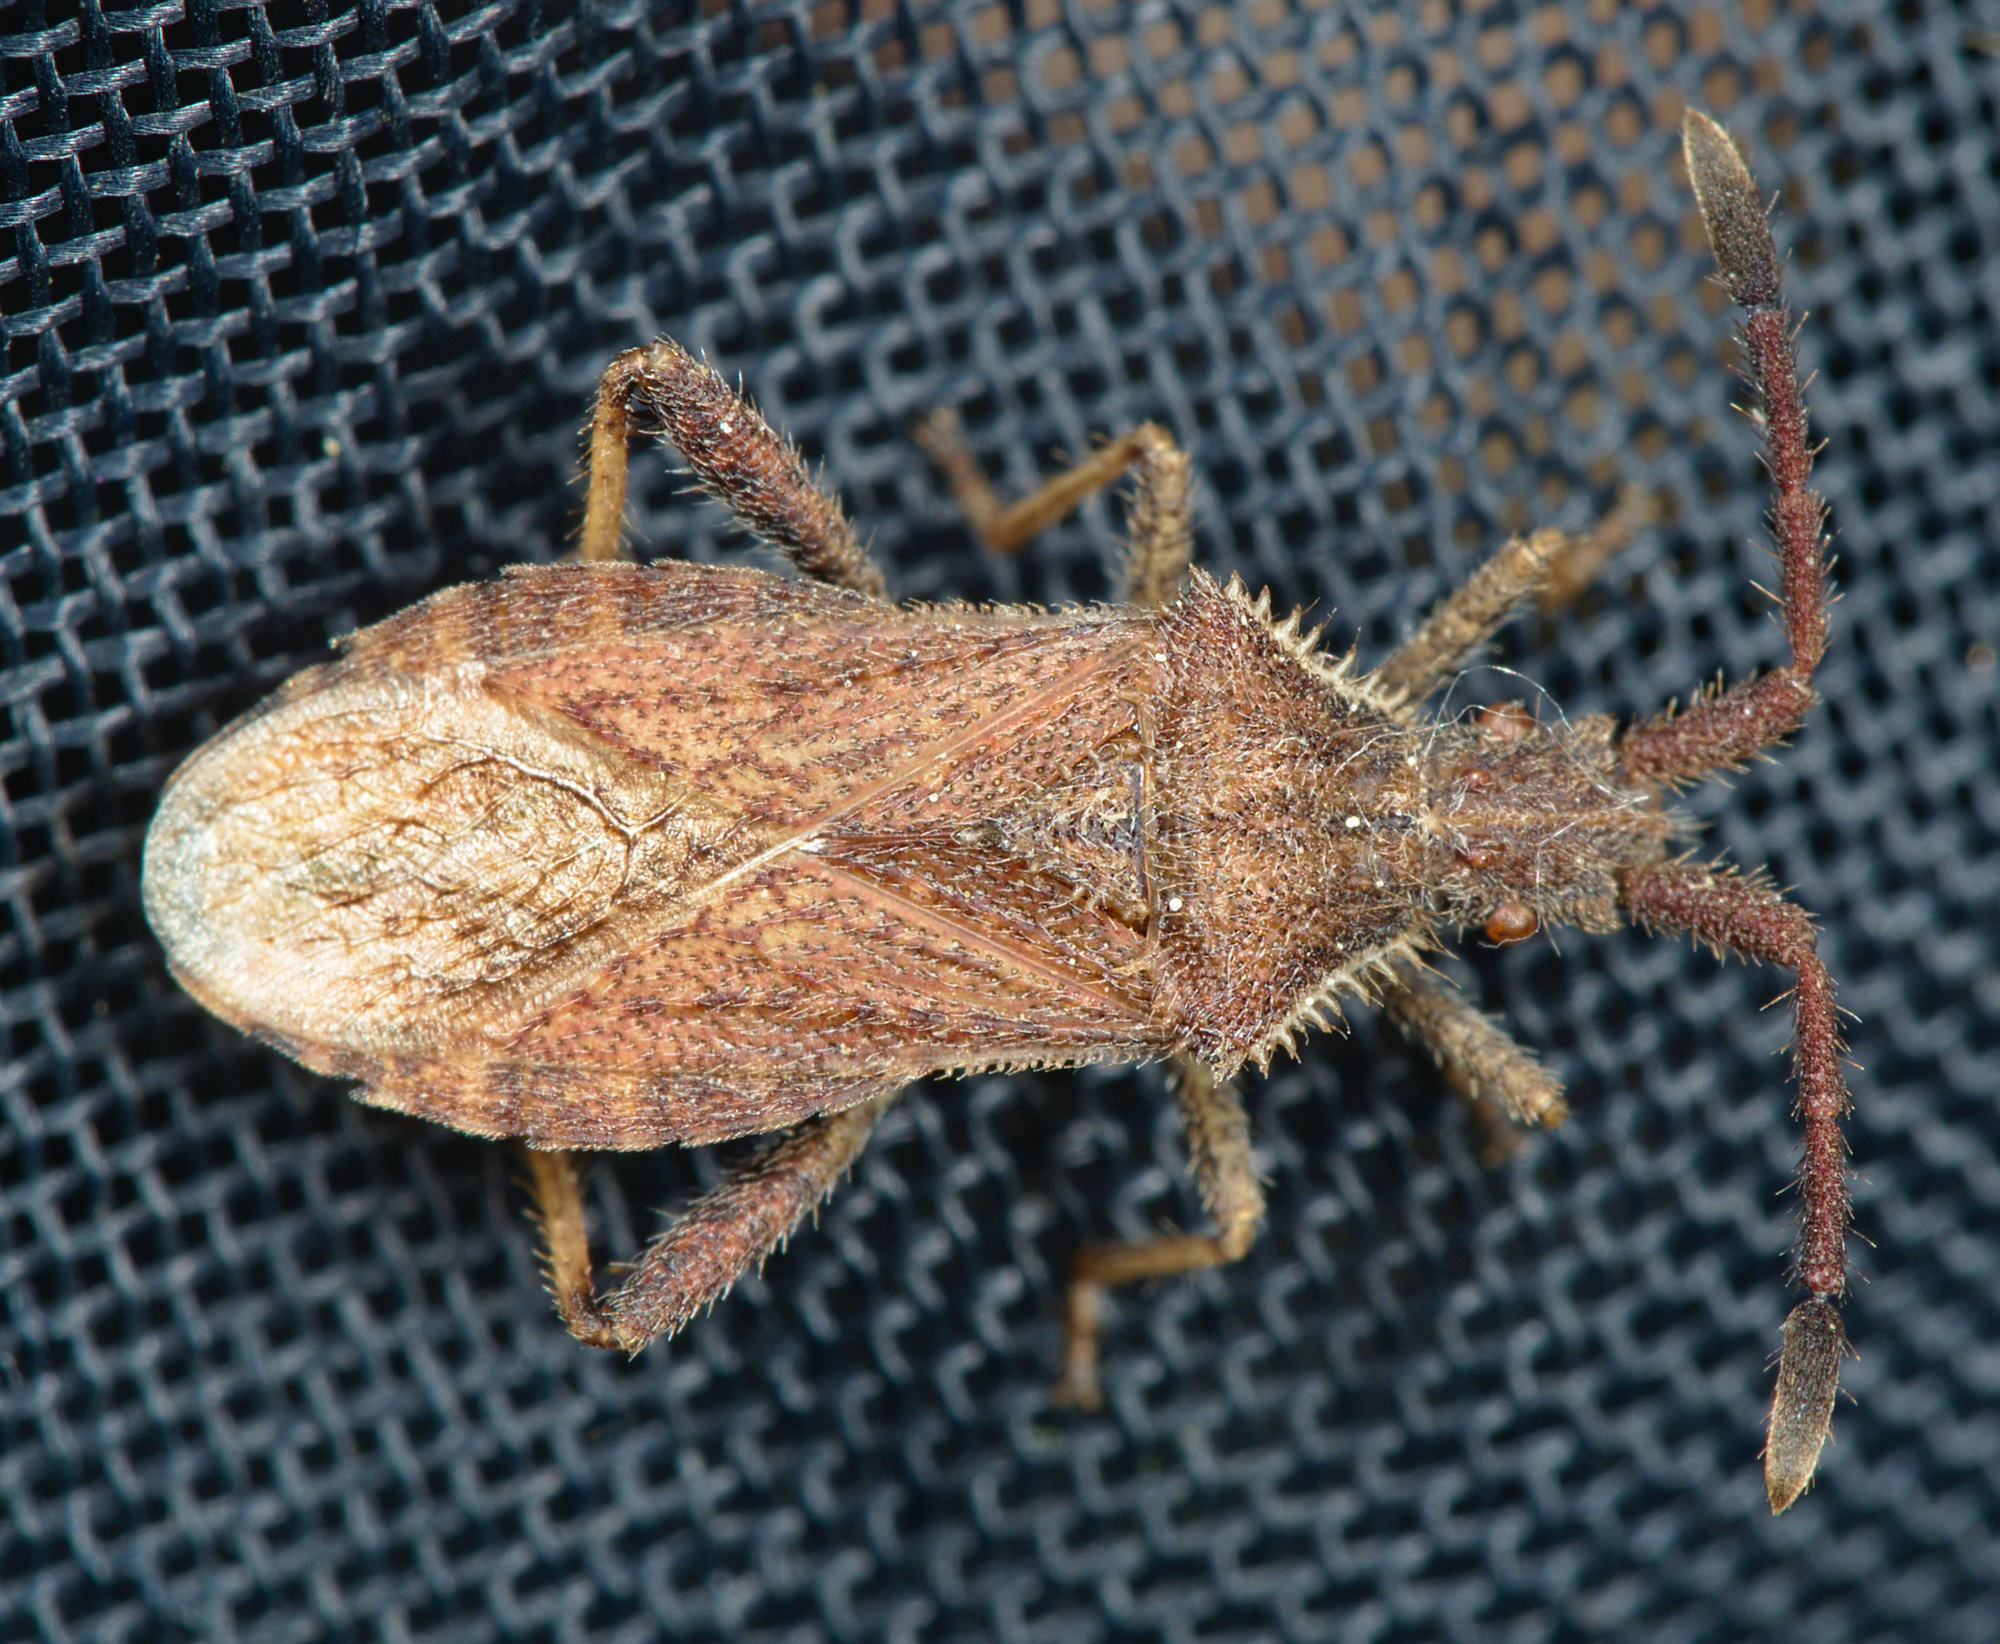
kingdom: Animalia
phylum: Arthropoda
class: Insecta
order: Hemiptera
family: Coreidae
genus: Coriomeris
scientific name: Coriomeris denticulatus
